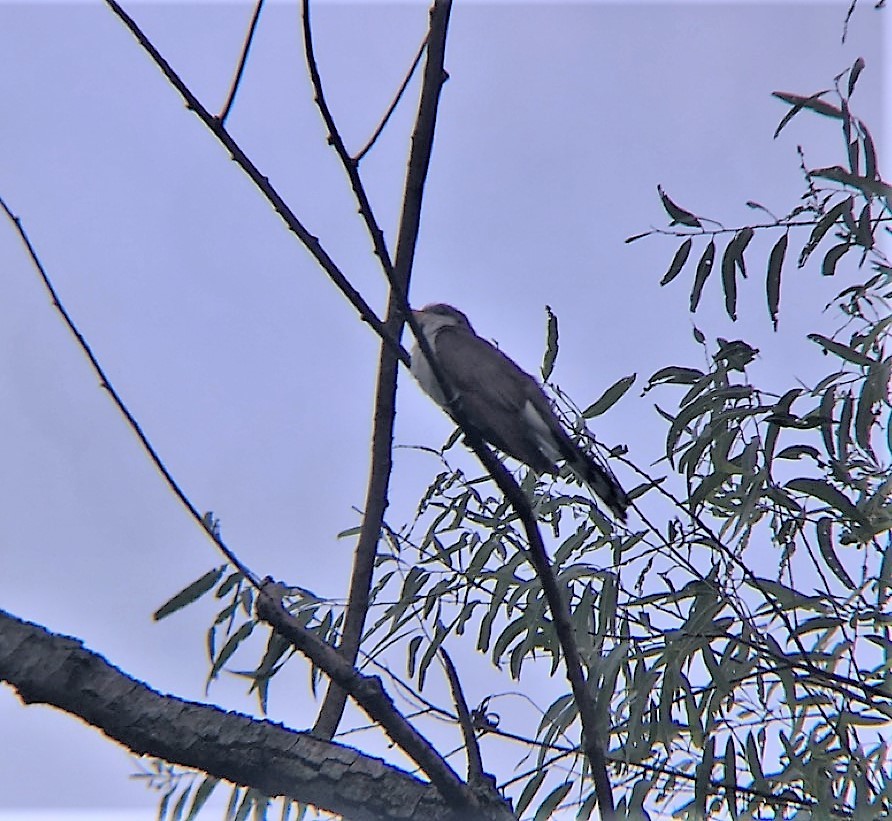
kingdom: Animalia
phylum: Chordata
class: Aves
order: Cuculiformes
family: Cuculidae
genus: Coccyzus
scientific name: Coccyzus americanus
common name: Yellow-billed cuckoo
